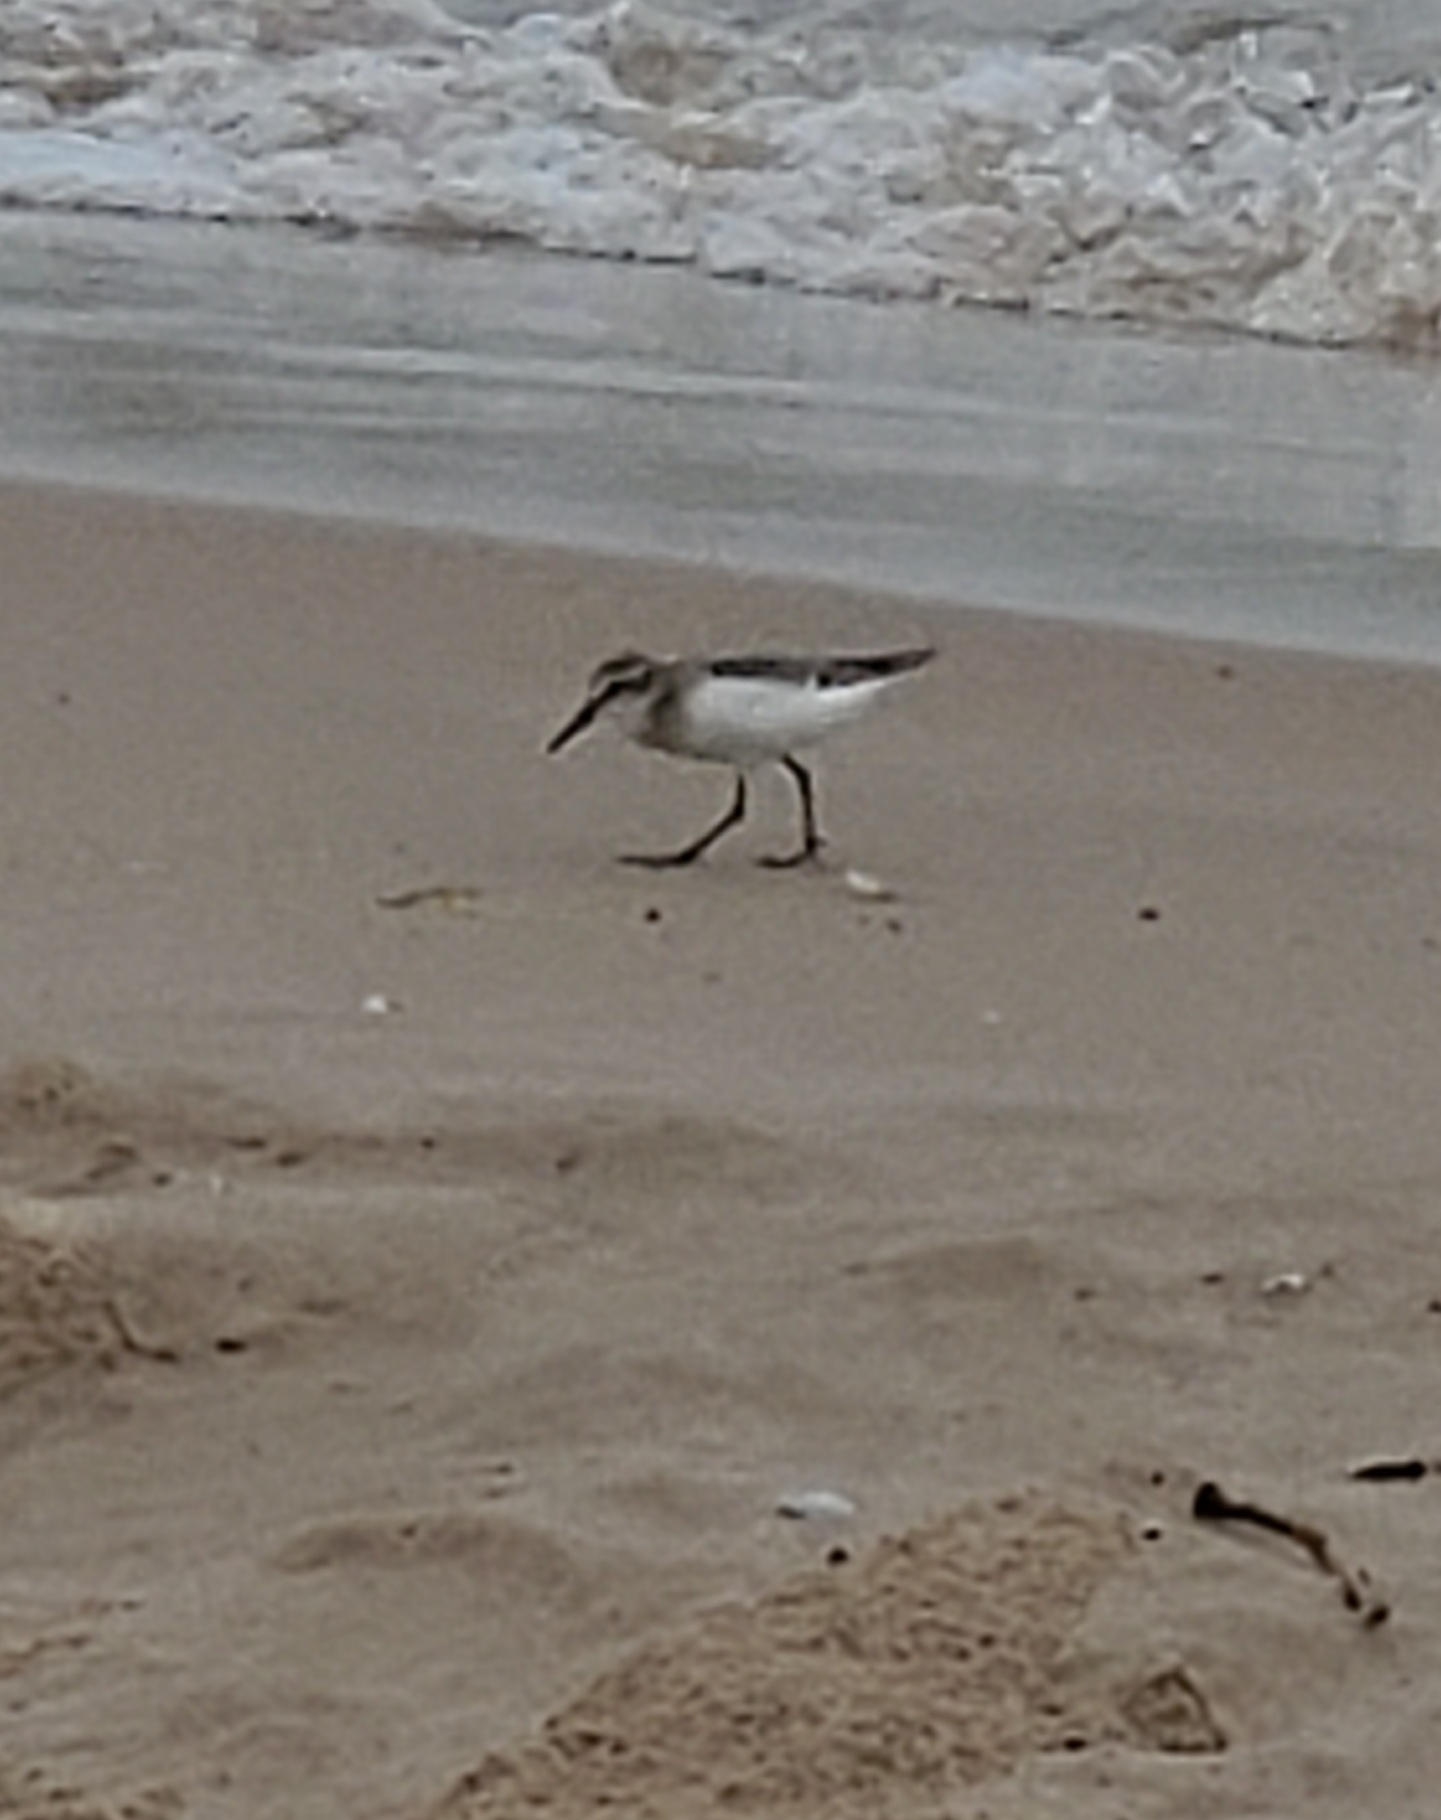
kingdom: Animalia
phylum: Chordata
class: Aves
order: Charadriiformes
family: Scolopacidae
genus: Calidris
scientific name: Calidris pusilla
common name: Semipalmated sandpiper
